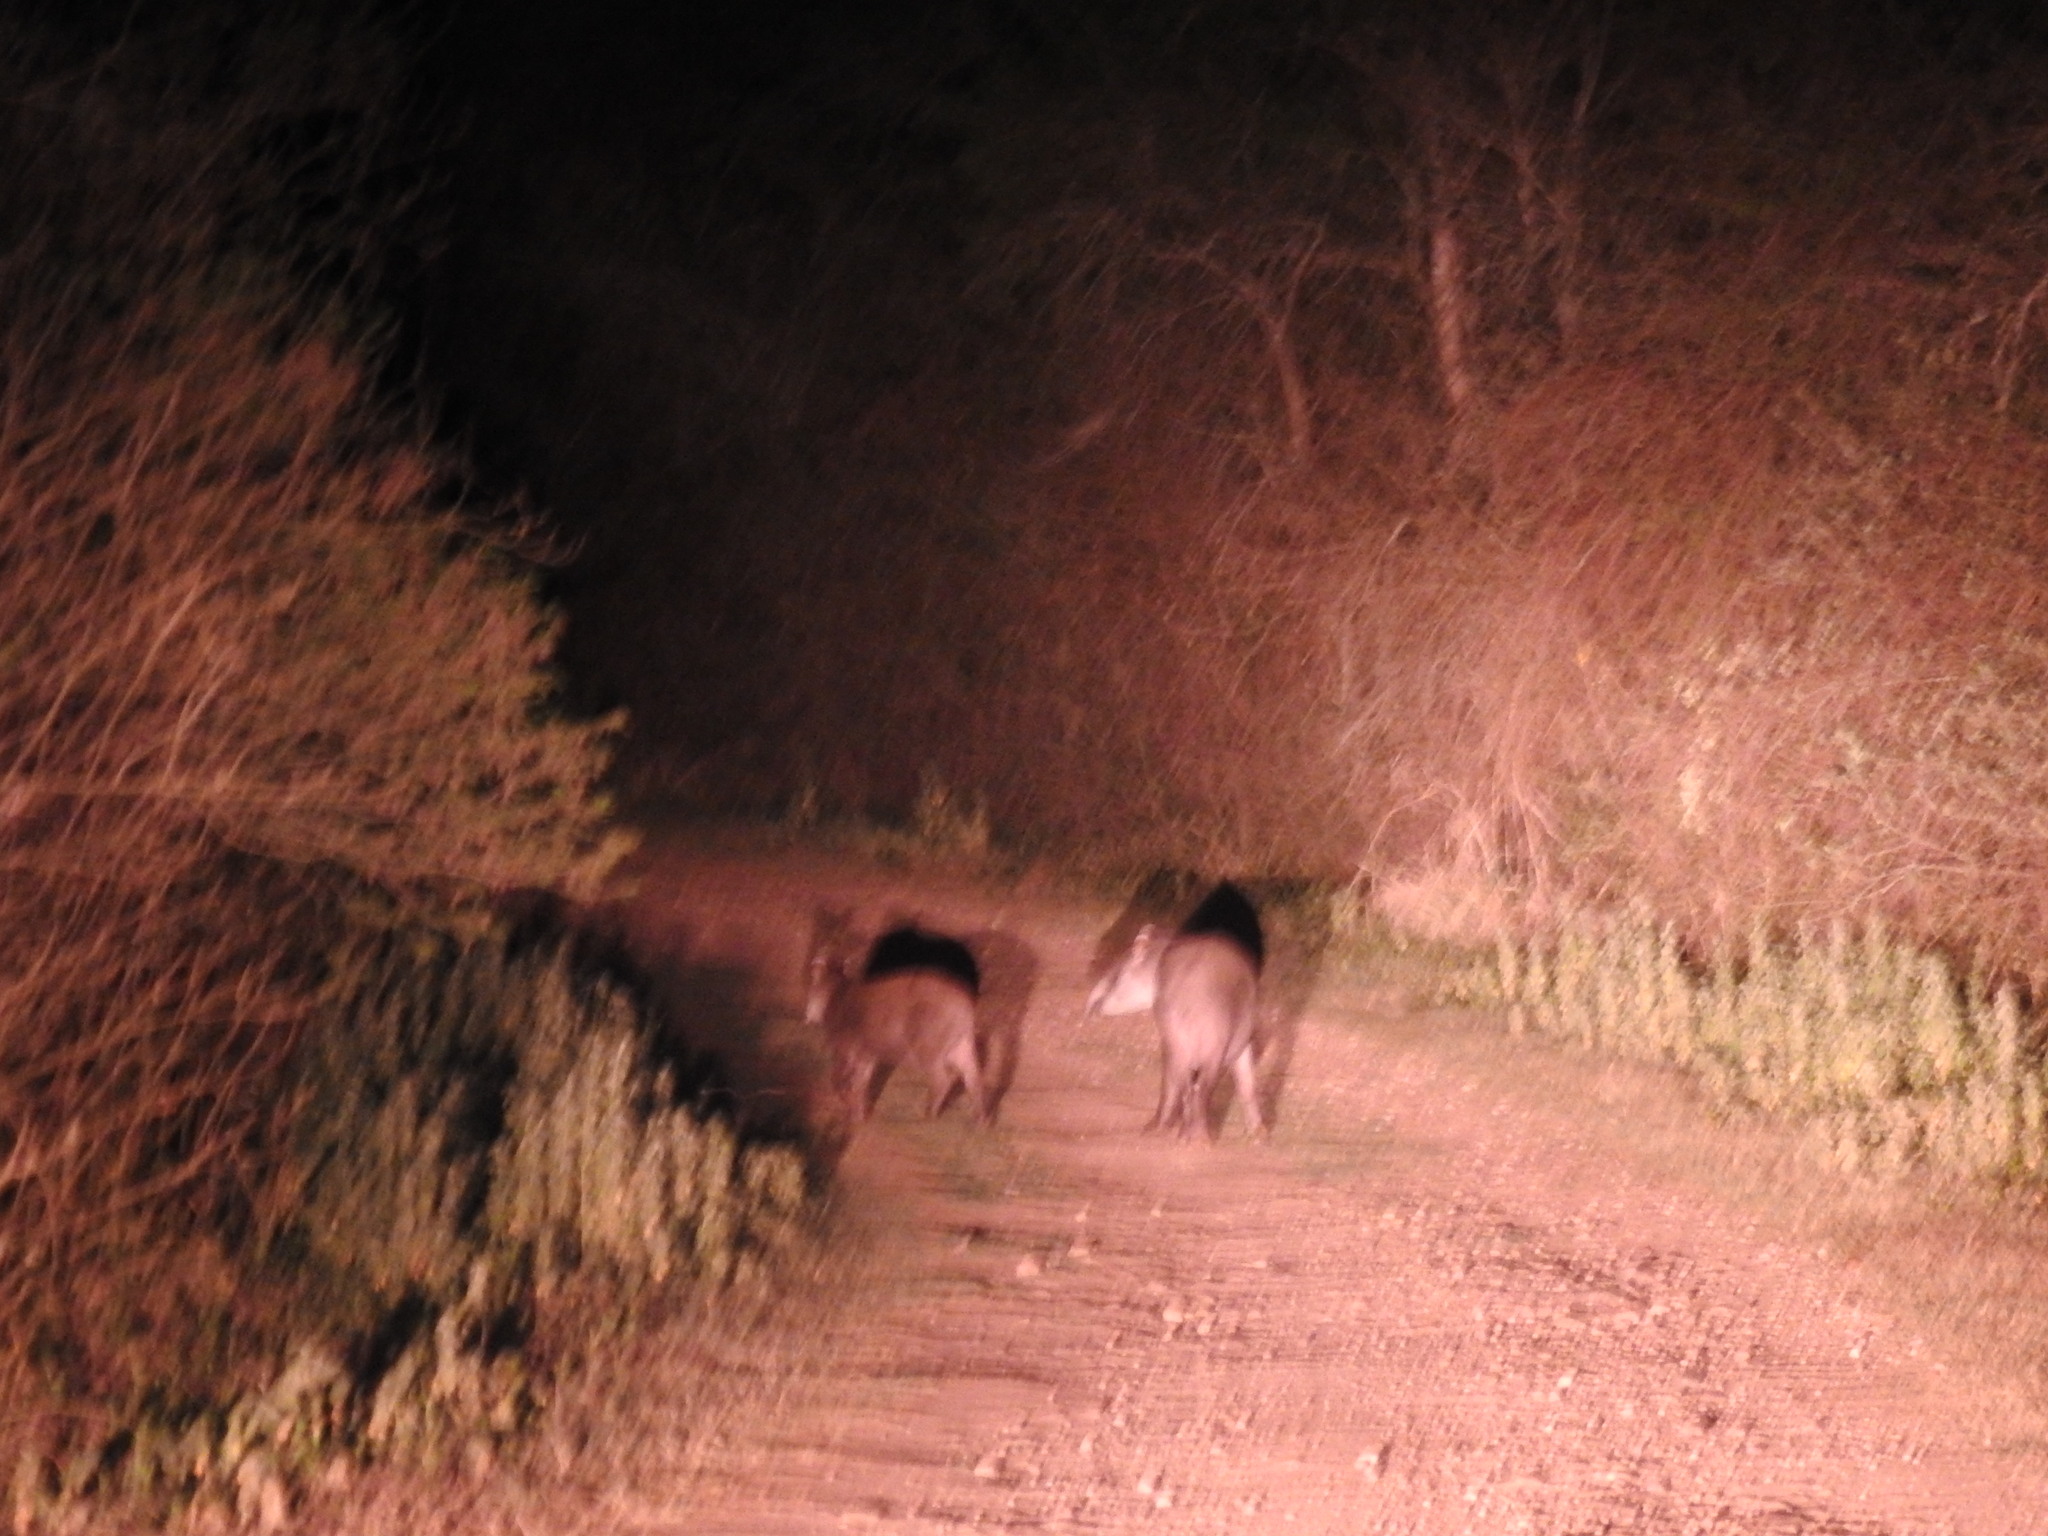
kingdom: Animalia
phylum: Chordata
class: Mammalia
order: Perissodactyla
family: Tapiridae
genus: Tapirus
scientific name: Tapirus terrestris
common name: Brazilian tapir
